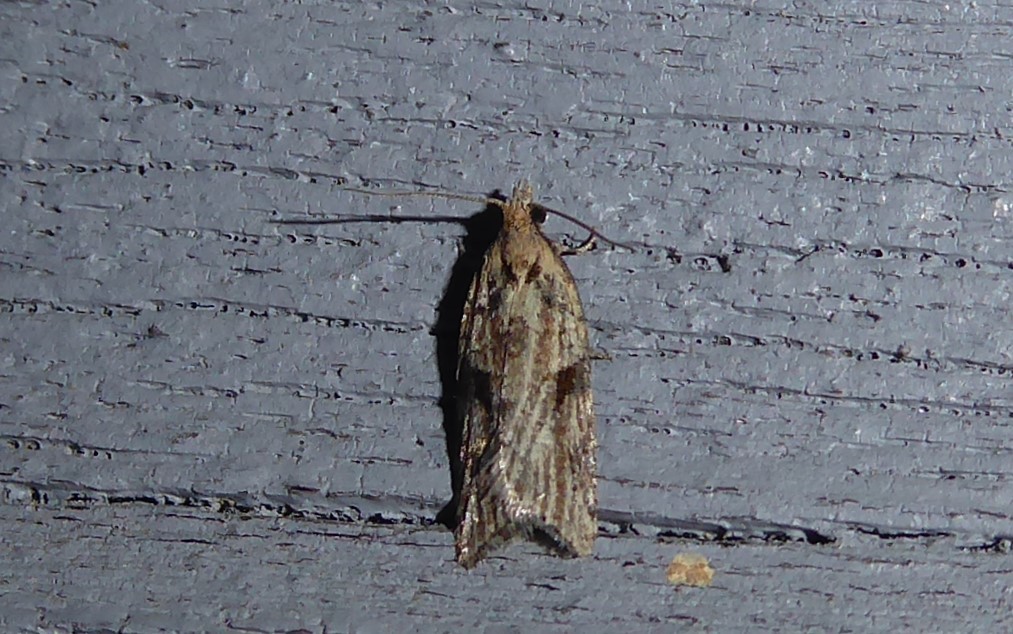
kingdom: Animalia
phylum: Arthropoda
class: Insecta
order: Lepidoptera
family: Tortricidae
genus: Capua
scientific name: Capua semiferana
